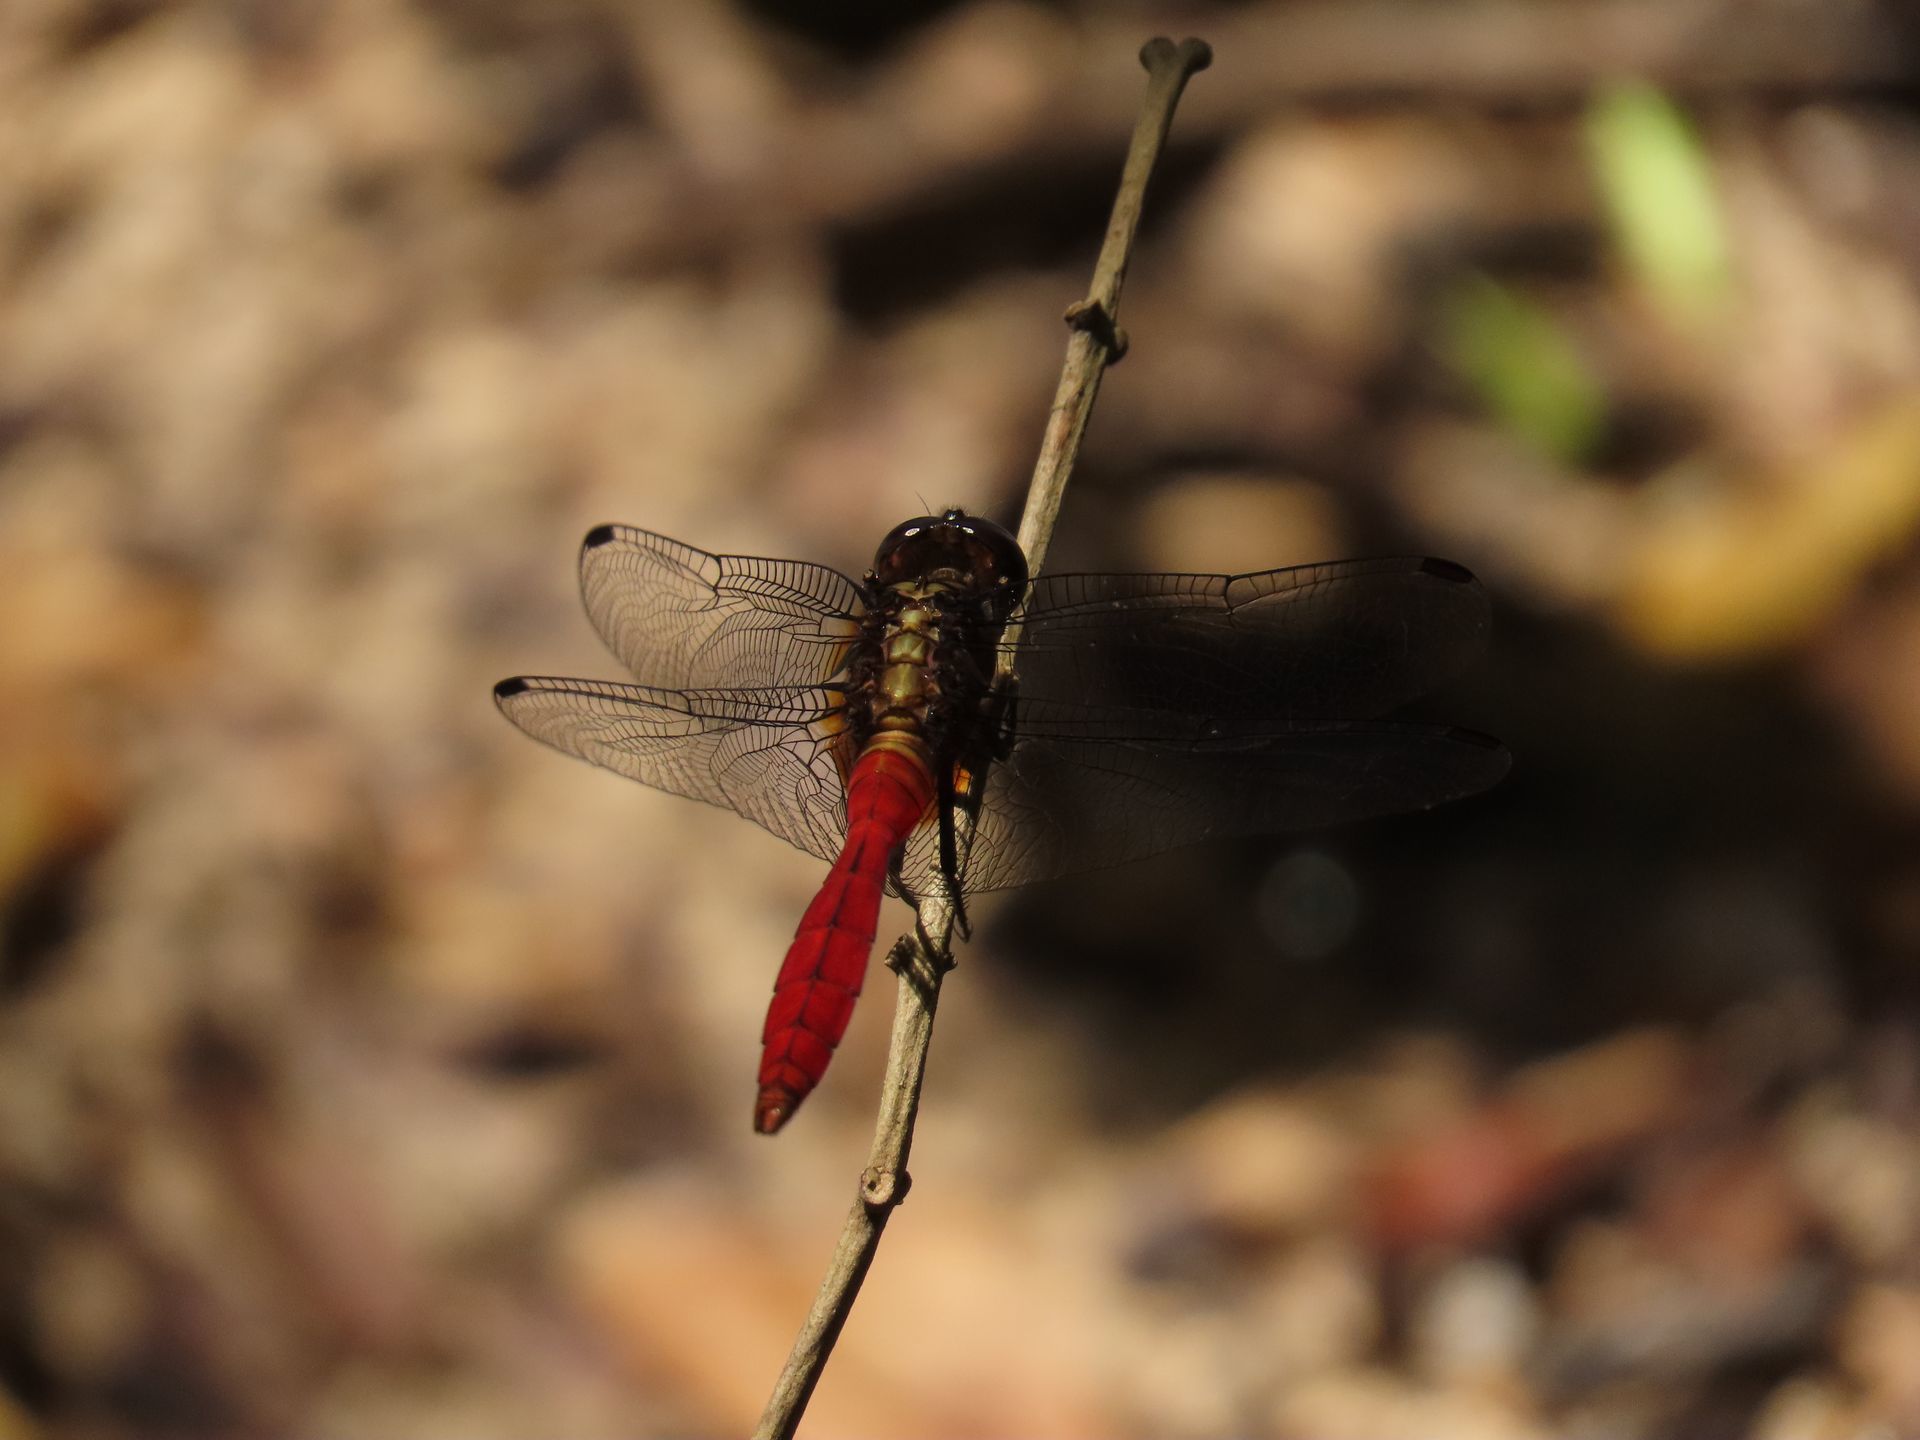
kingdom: Animalia
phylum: Arthropoda
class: Insecta
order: Odonata
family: Libellulidae
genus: Orthetrum
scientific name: Orthetrum villosovittatum
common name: Firery skimmer
